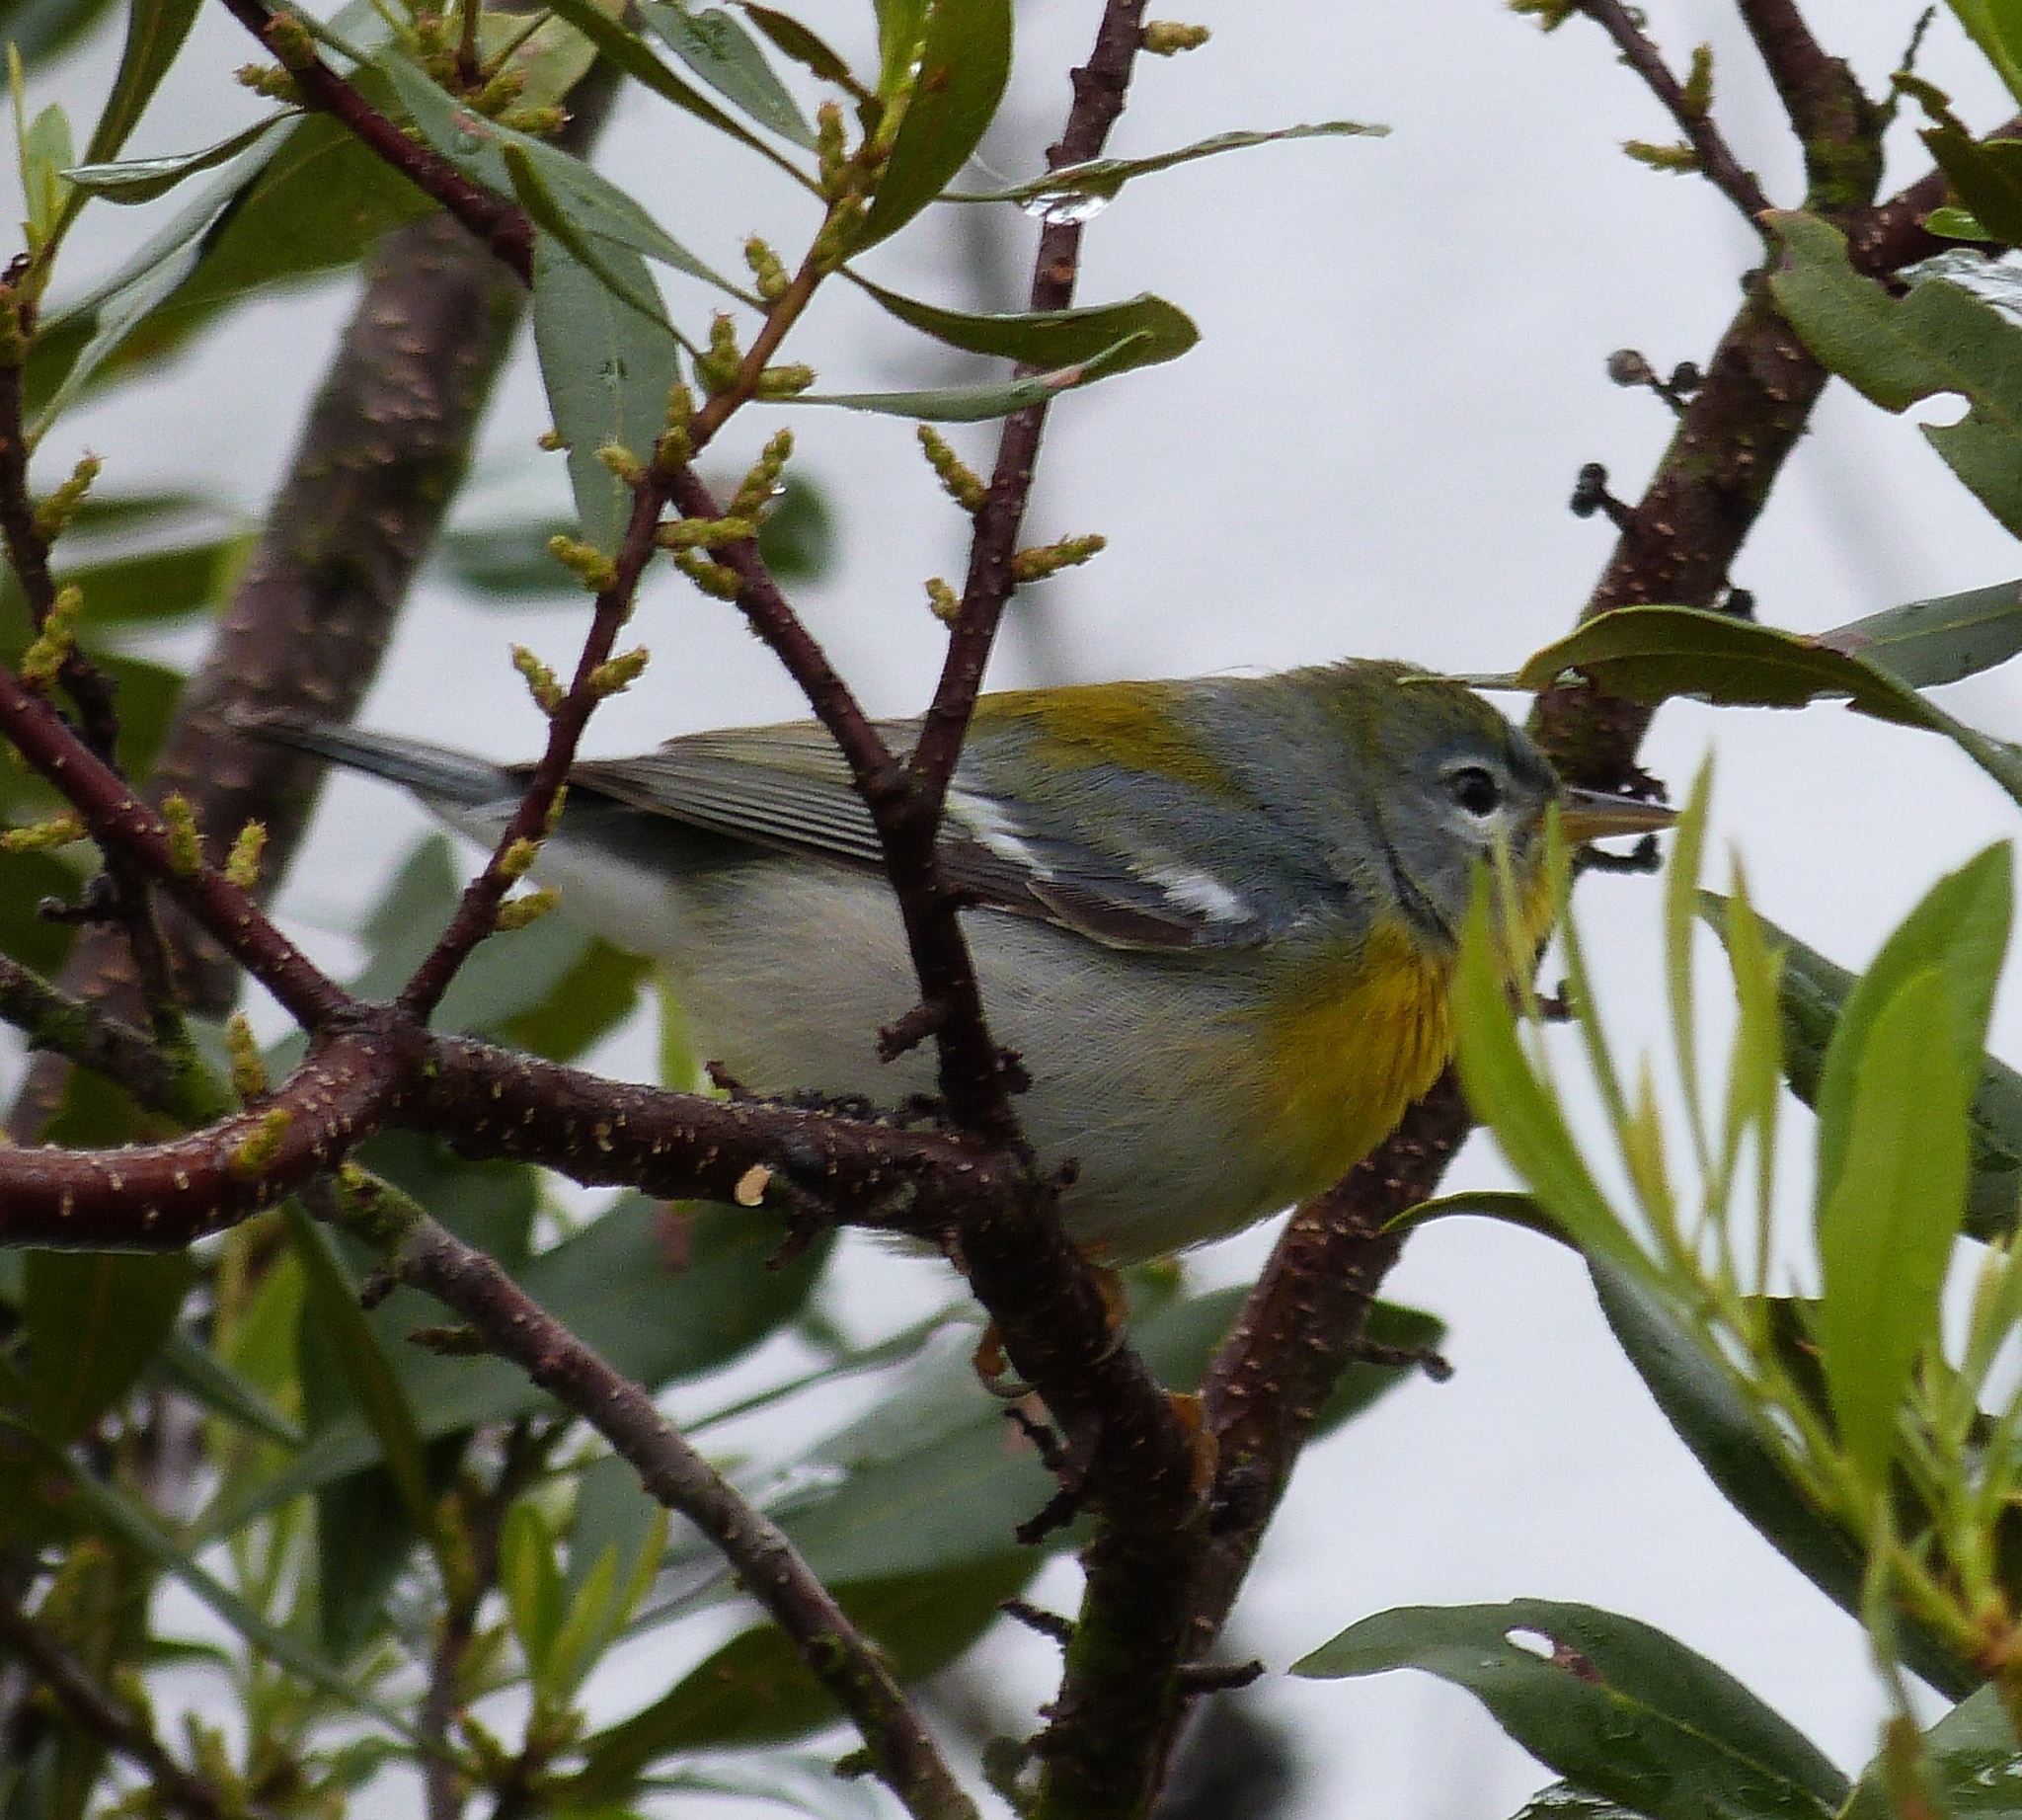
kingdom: Animalia
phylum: Chordata
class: Aves
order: Passeriformes
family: Parulidae
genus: Setophaga
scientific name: Setophaga americana
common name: Northern parula
